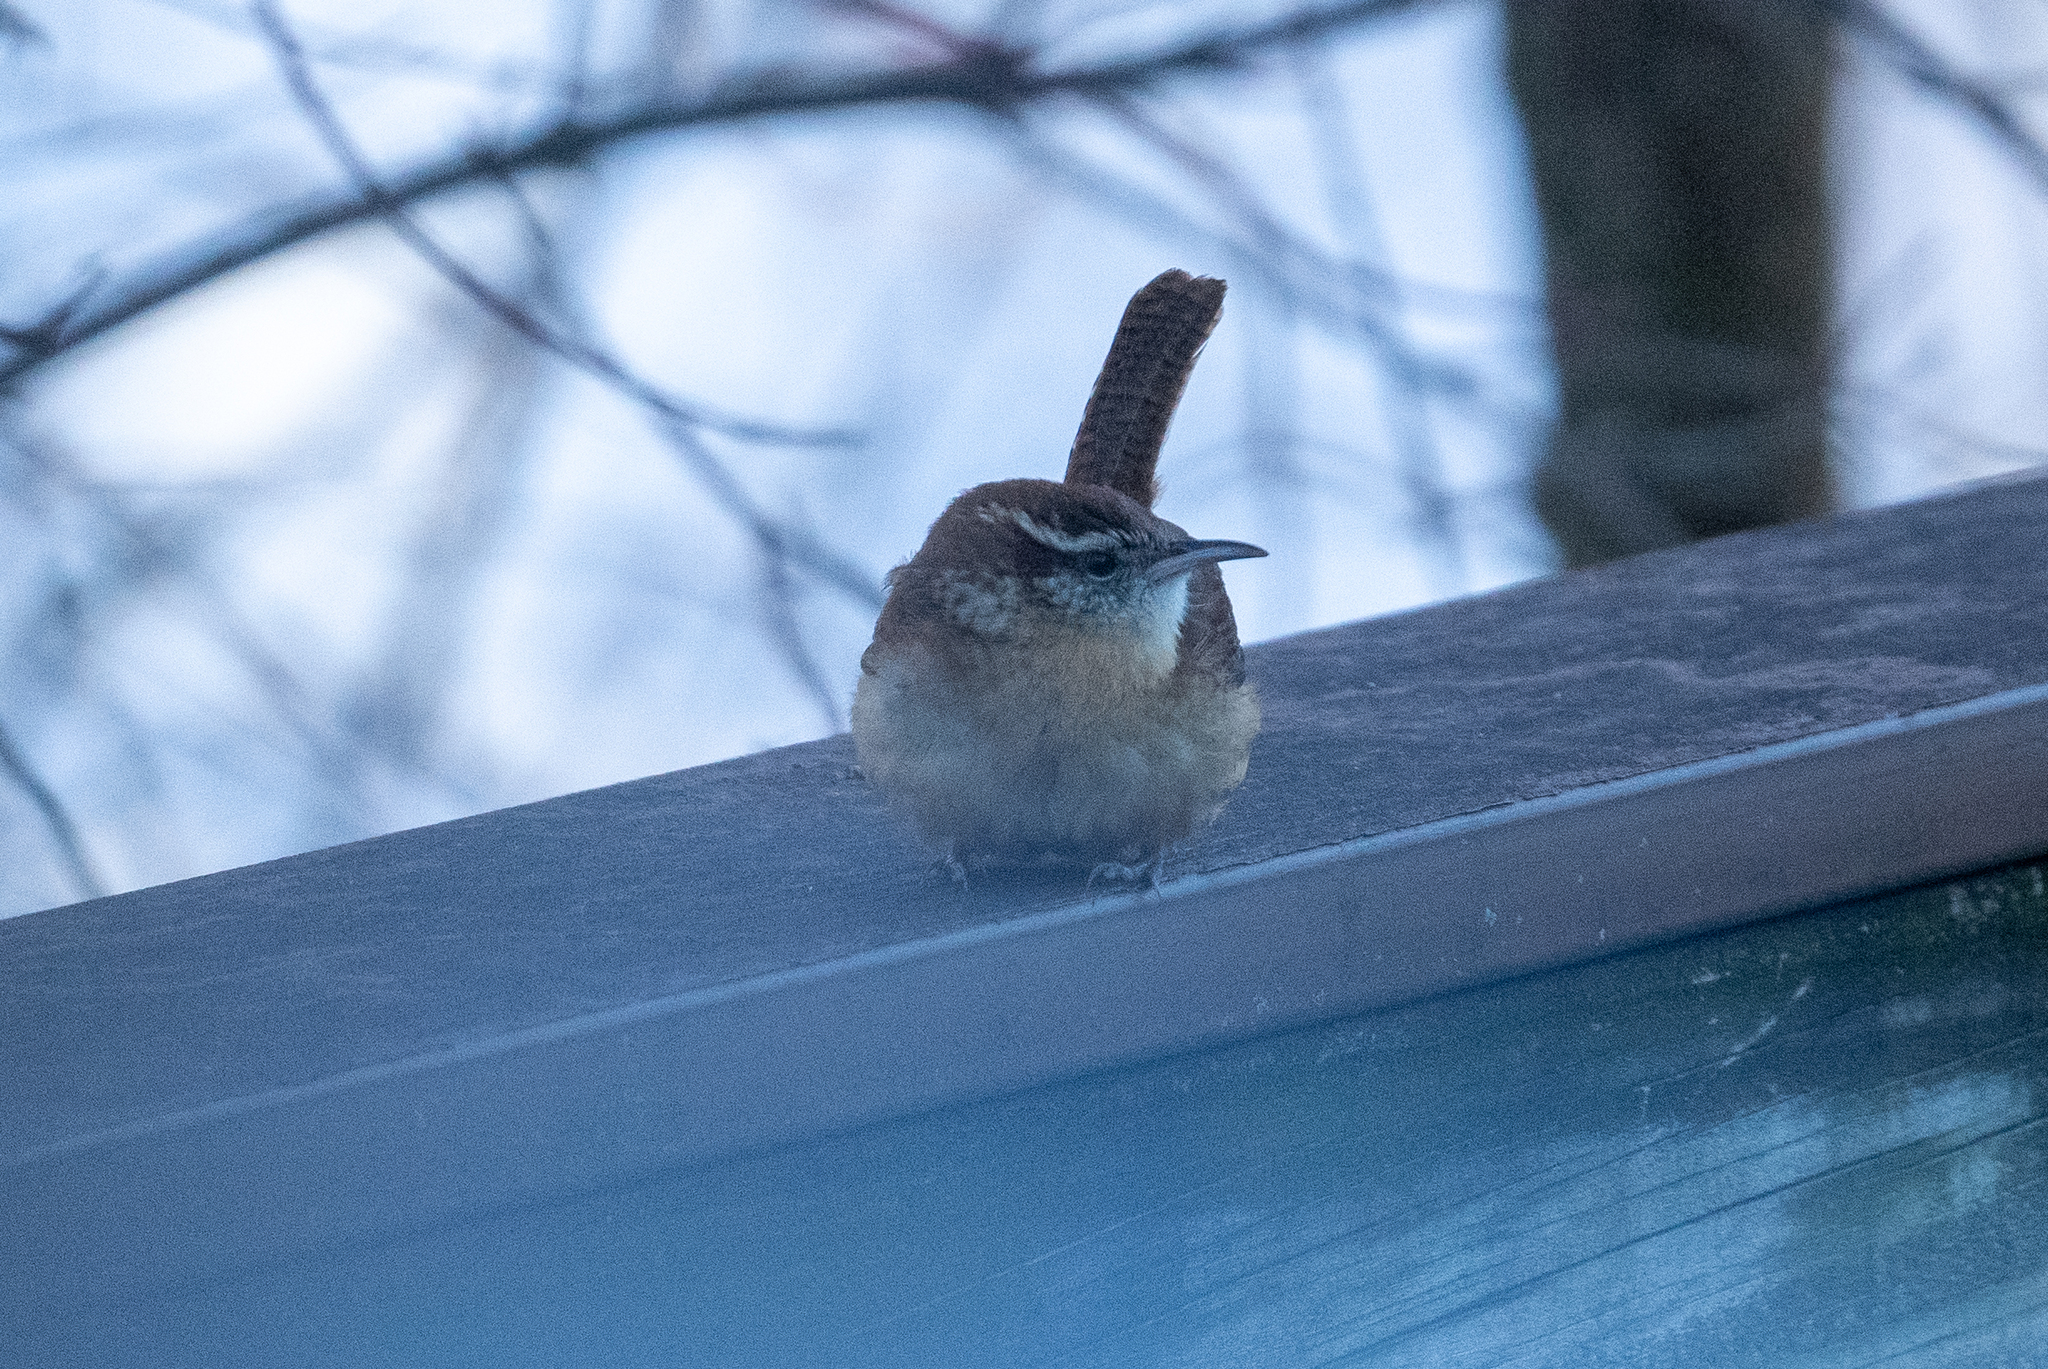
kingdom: Animalia
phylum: Chordata
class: Aves
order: Passeriformes
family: Troglodytidae
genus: Thryothorus
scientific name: Thryothorus ludovicianus
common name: Carolina wren
